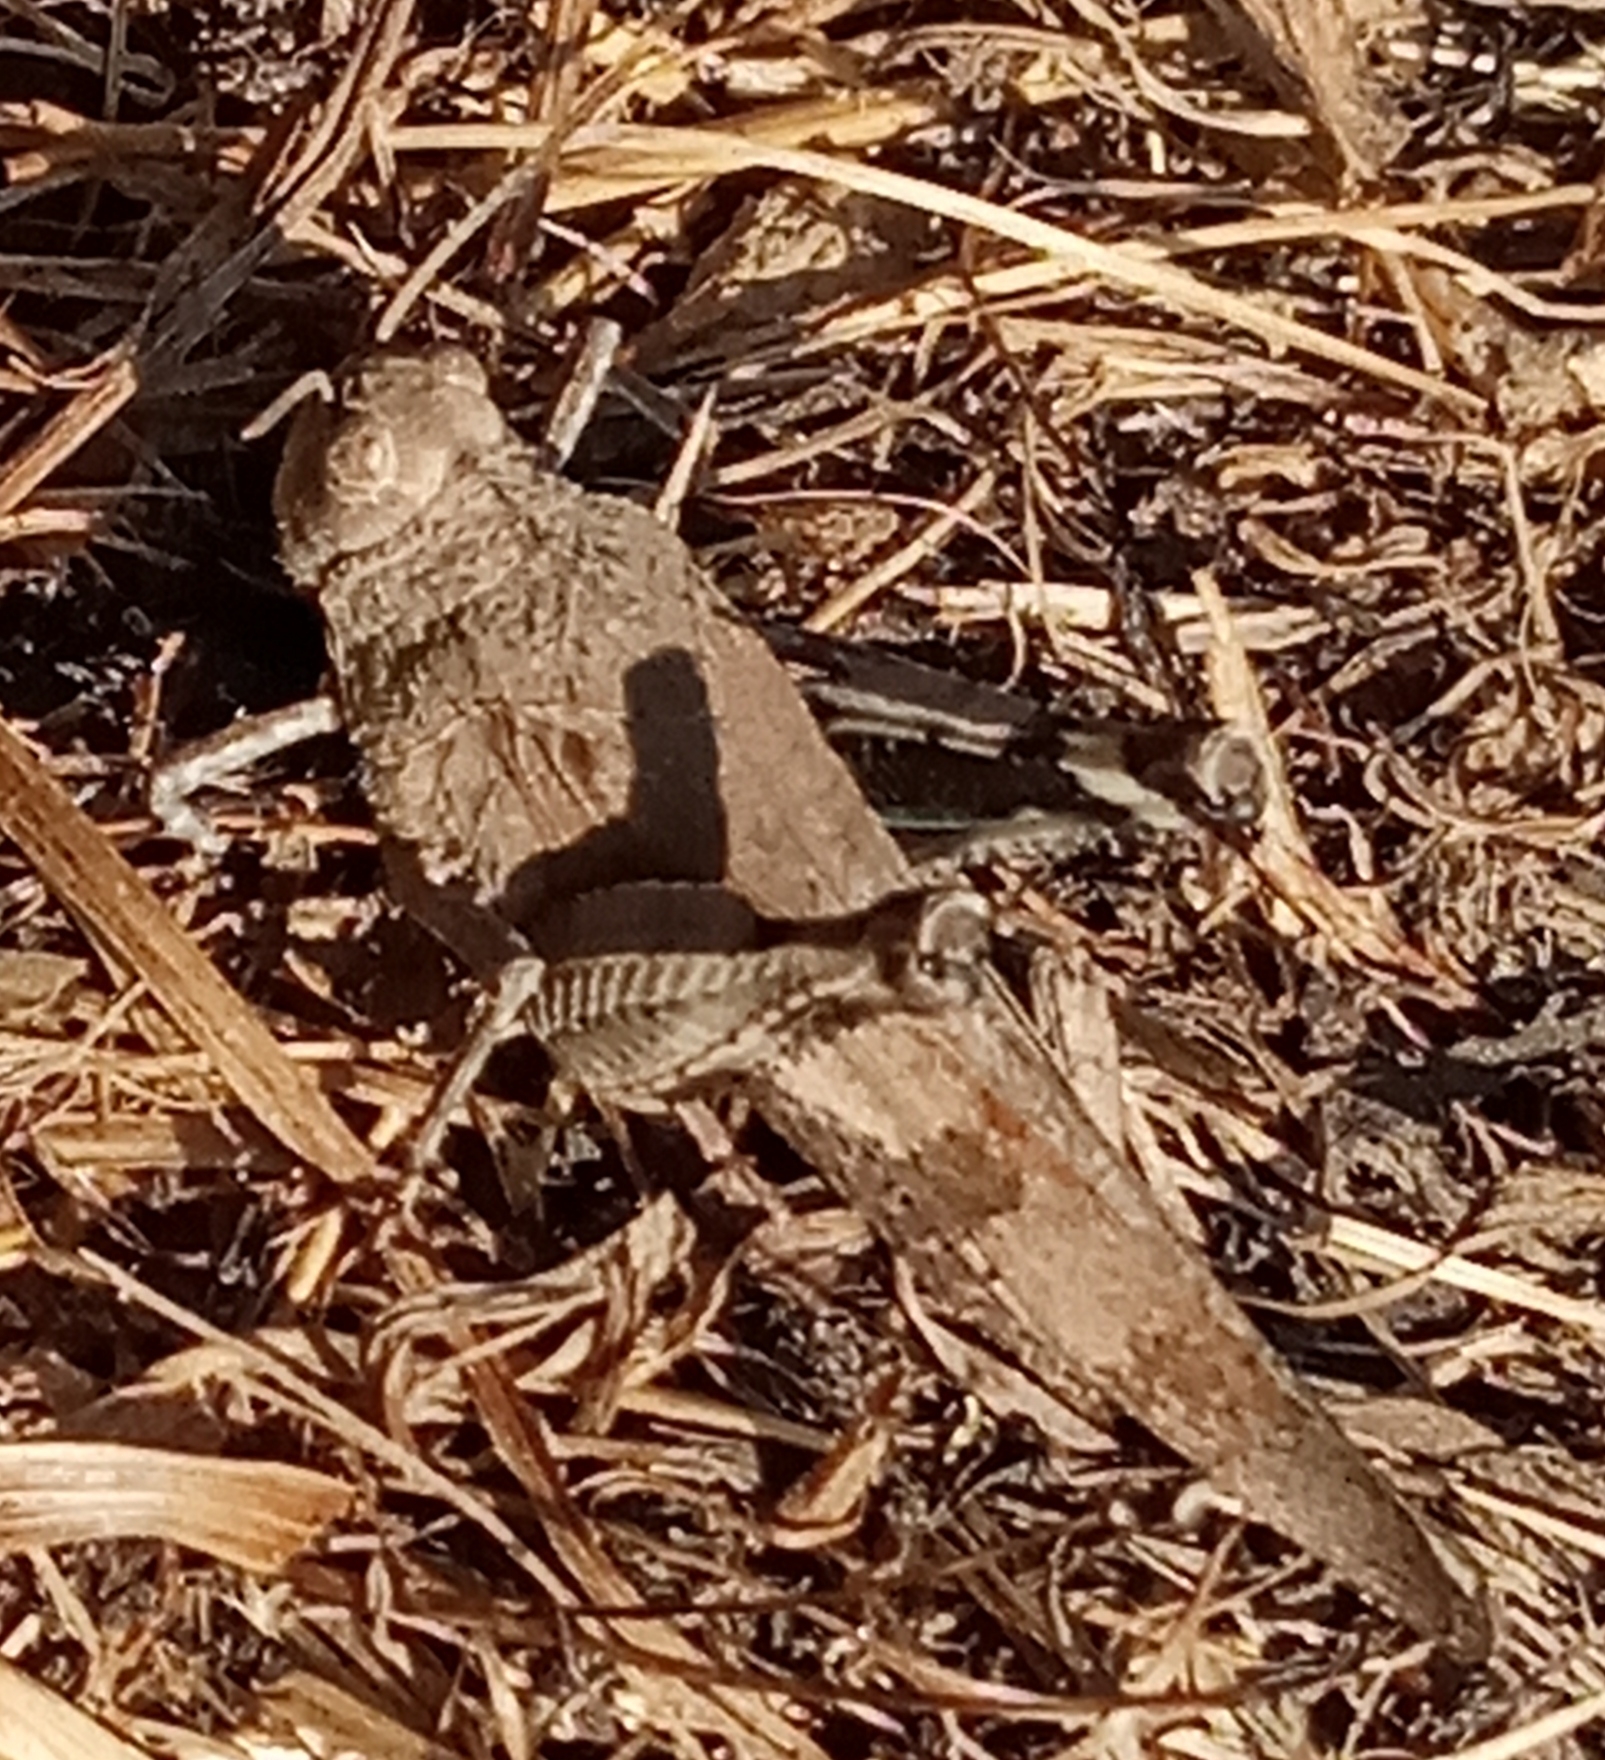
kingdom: Animalia
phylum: Arthropoda
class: Insecta
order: Orthoptera
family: Acrididae
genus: Oedipoda
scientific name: Oedipoda caerulescens
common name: Blue-winged grasshopper
